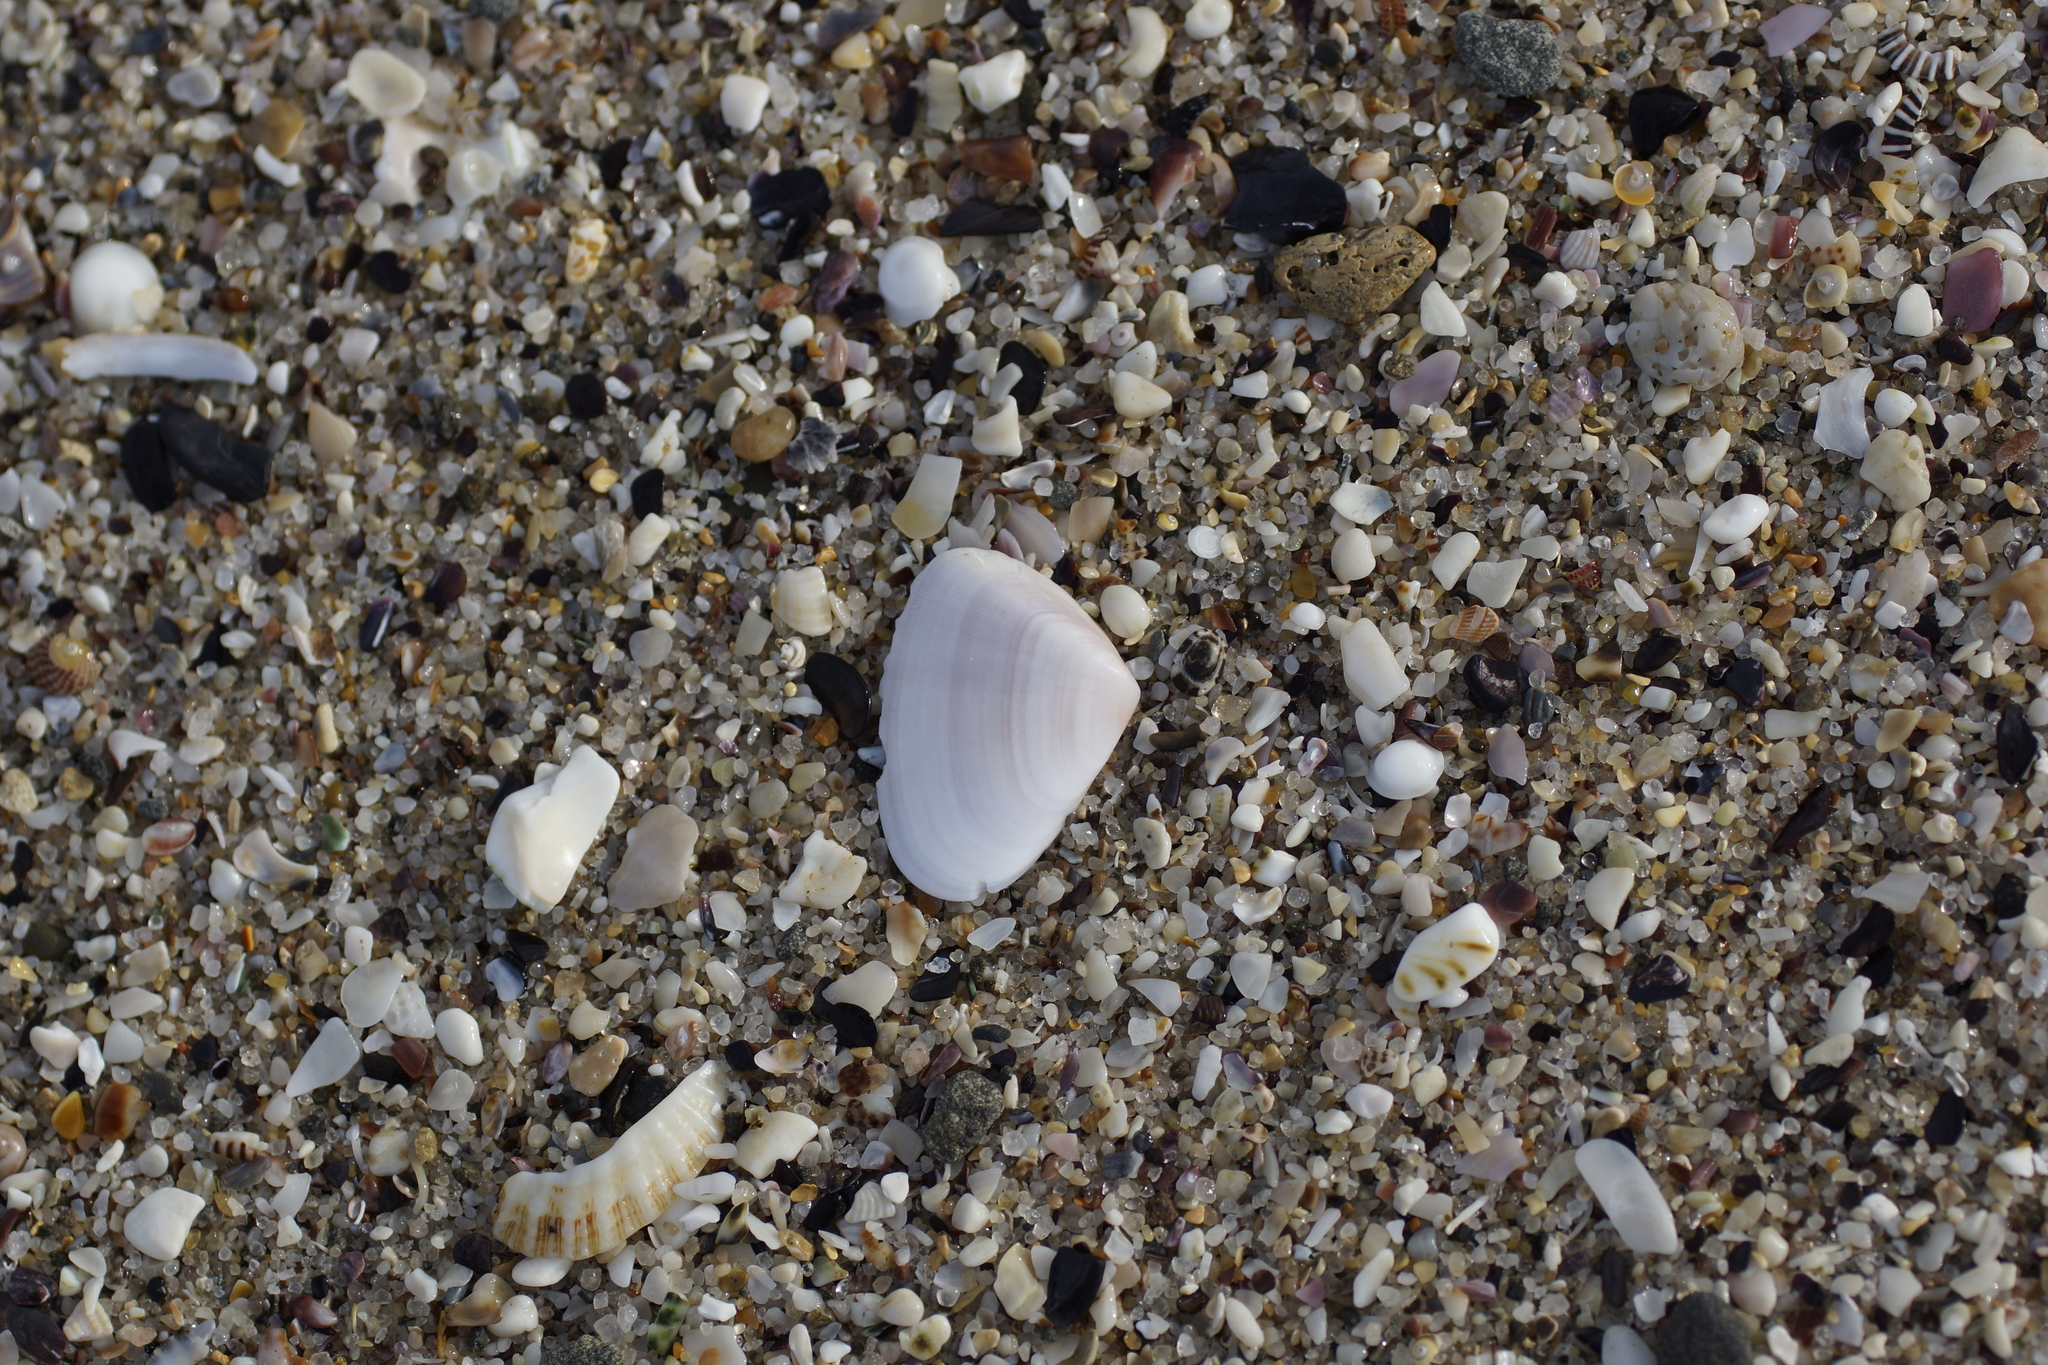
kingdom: Animalia
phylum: Mollusca
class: Bivalvia
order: Cardiida
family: Donacidae
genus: Latona
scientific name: Latona deltoides
